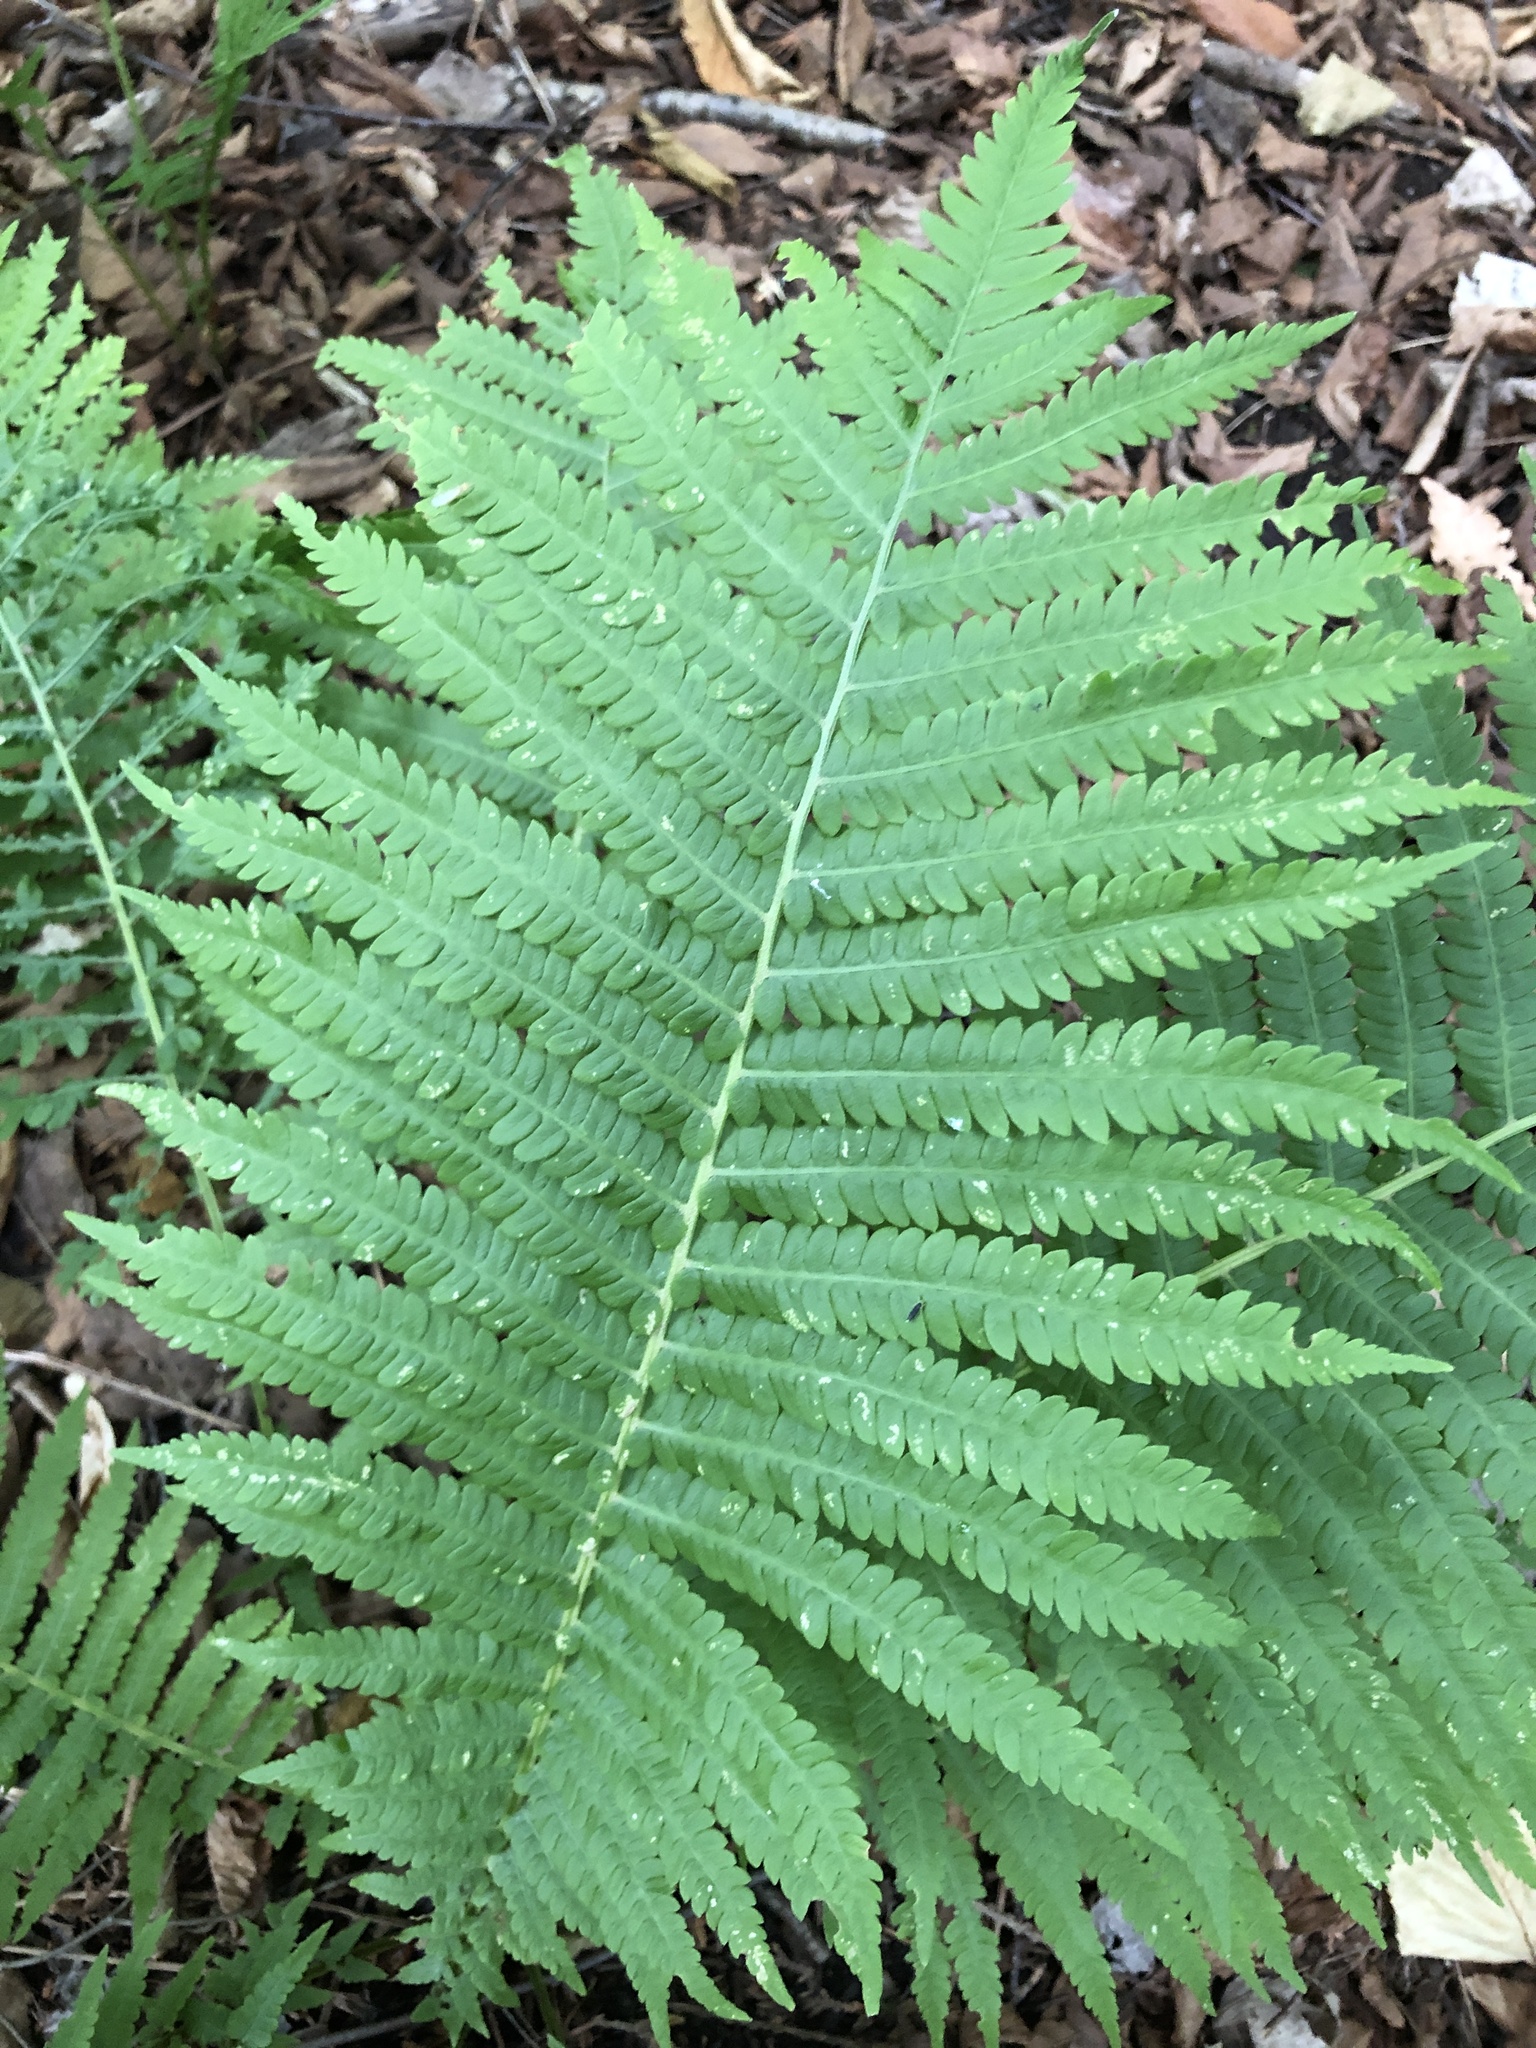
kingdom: Plantae
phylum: Tracheophyta
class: Polypodiopsida
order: Polypodiales
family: Onocleaceae
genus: Matteuccia
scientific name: Matteuccia struthiopteris
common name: Ostrich fern
